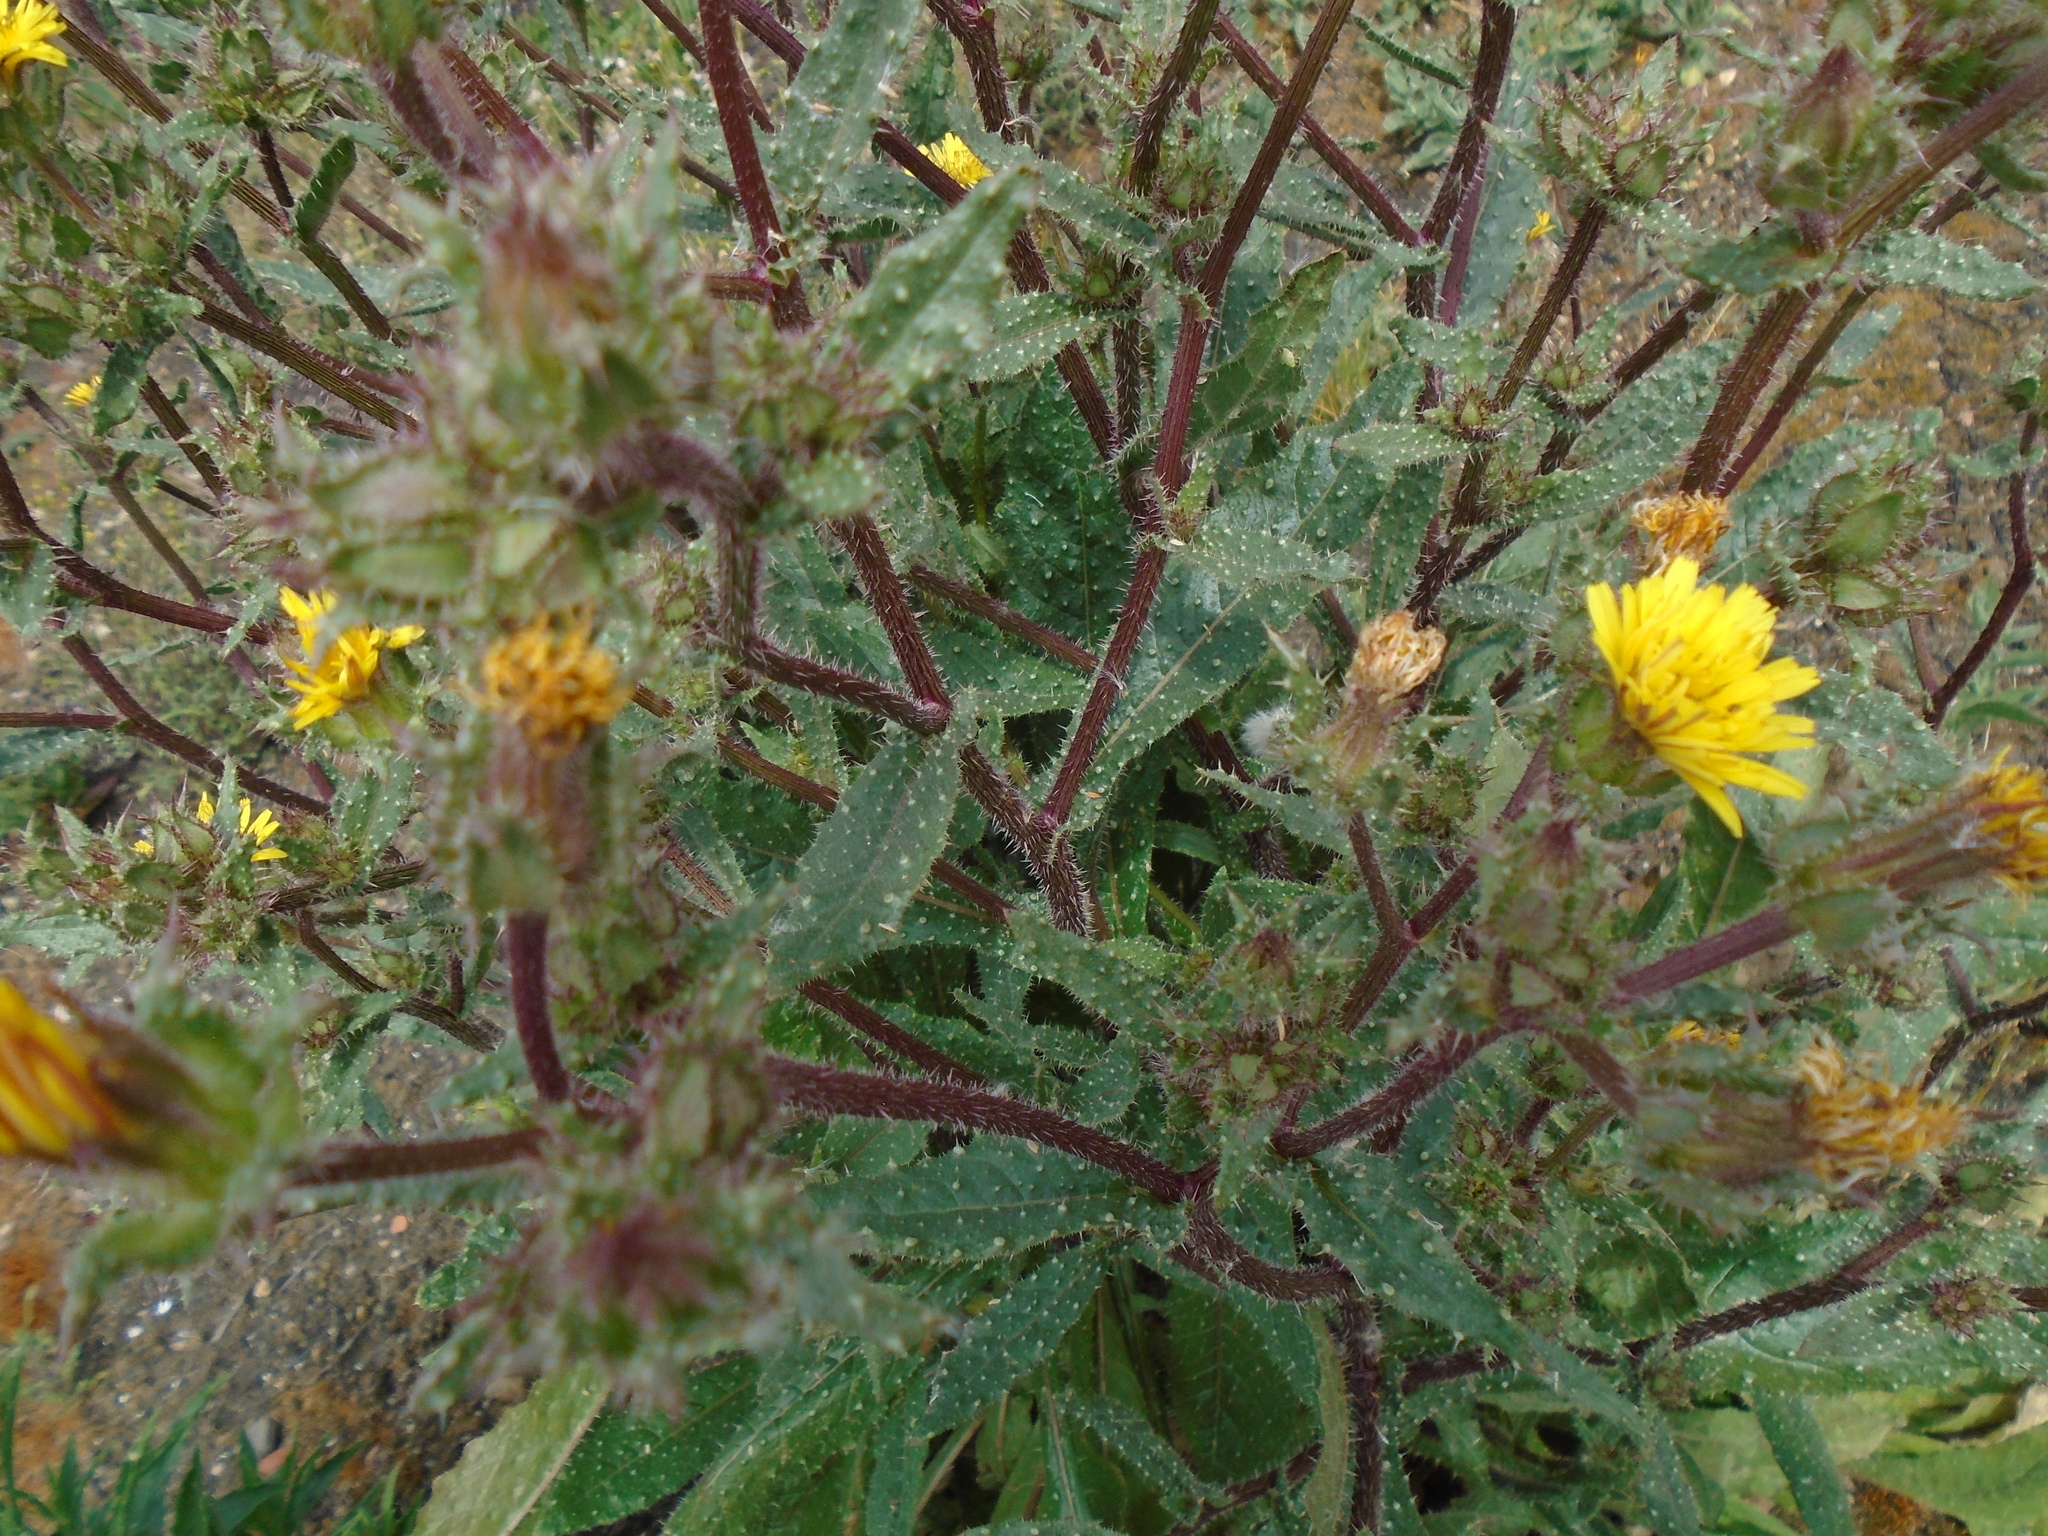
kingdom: Plantae
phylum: Tracheophyta
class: Magnoliopsida
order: Asterales
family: Asteraceae
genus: Helminthotheca
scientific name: Helminthotheca echioides
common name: Ox-tongue
